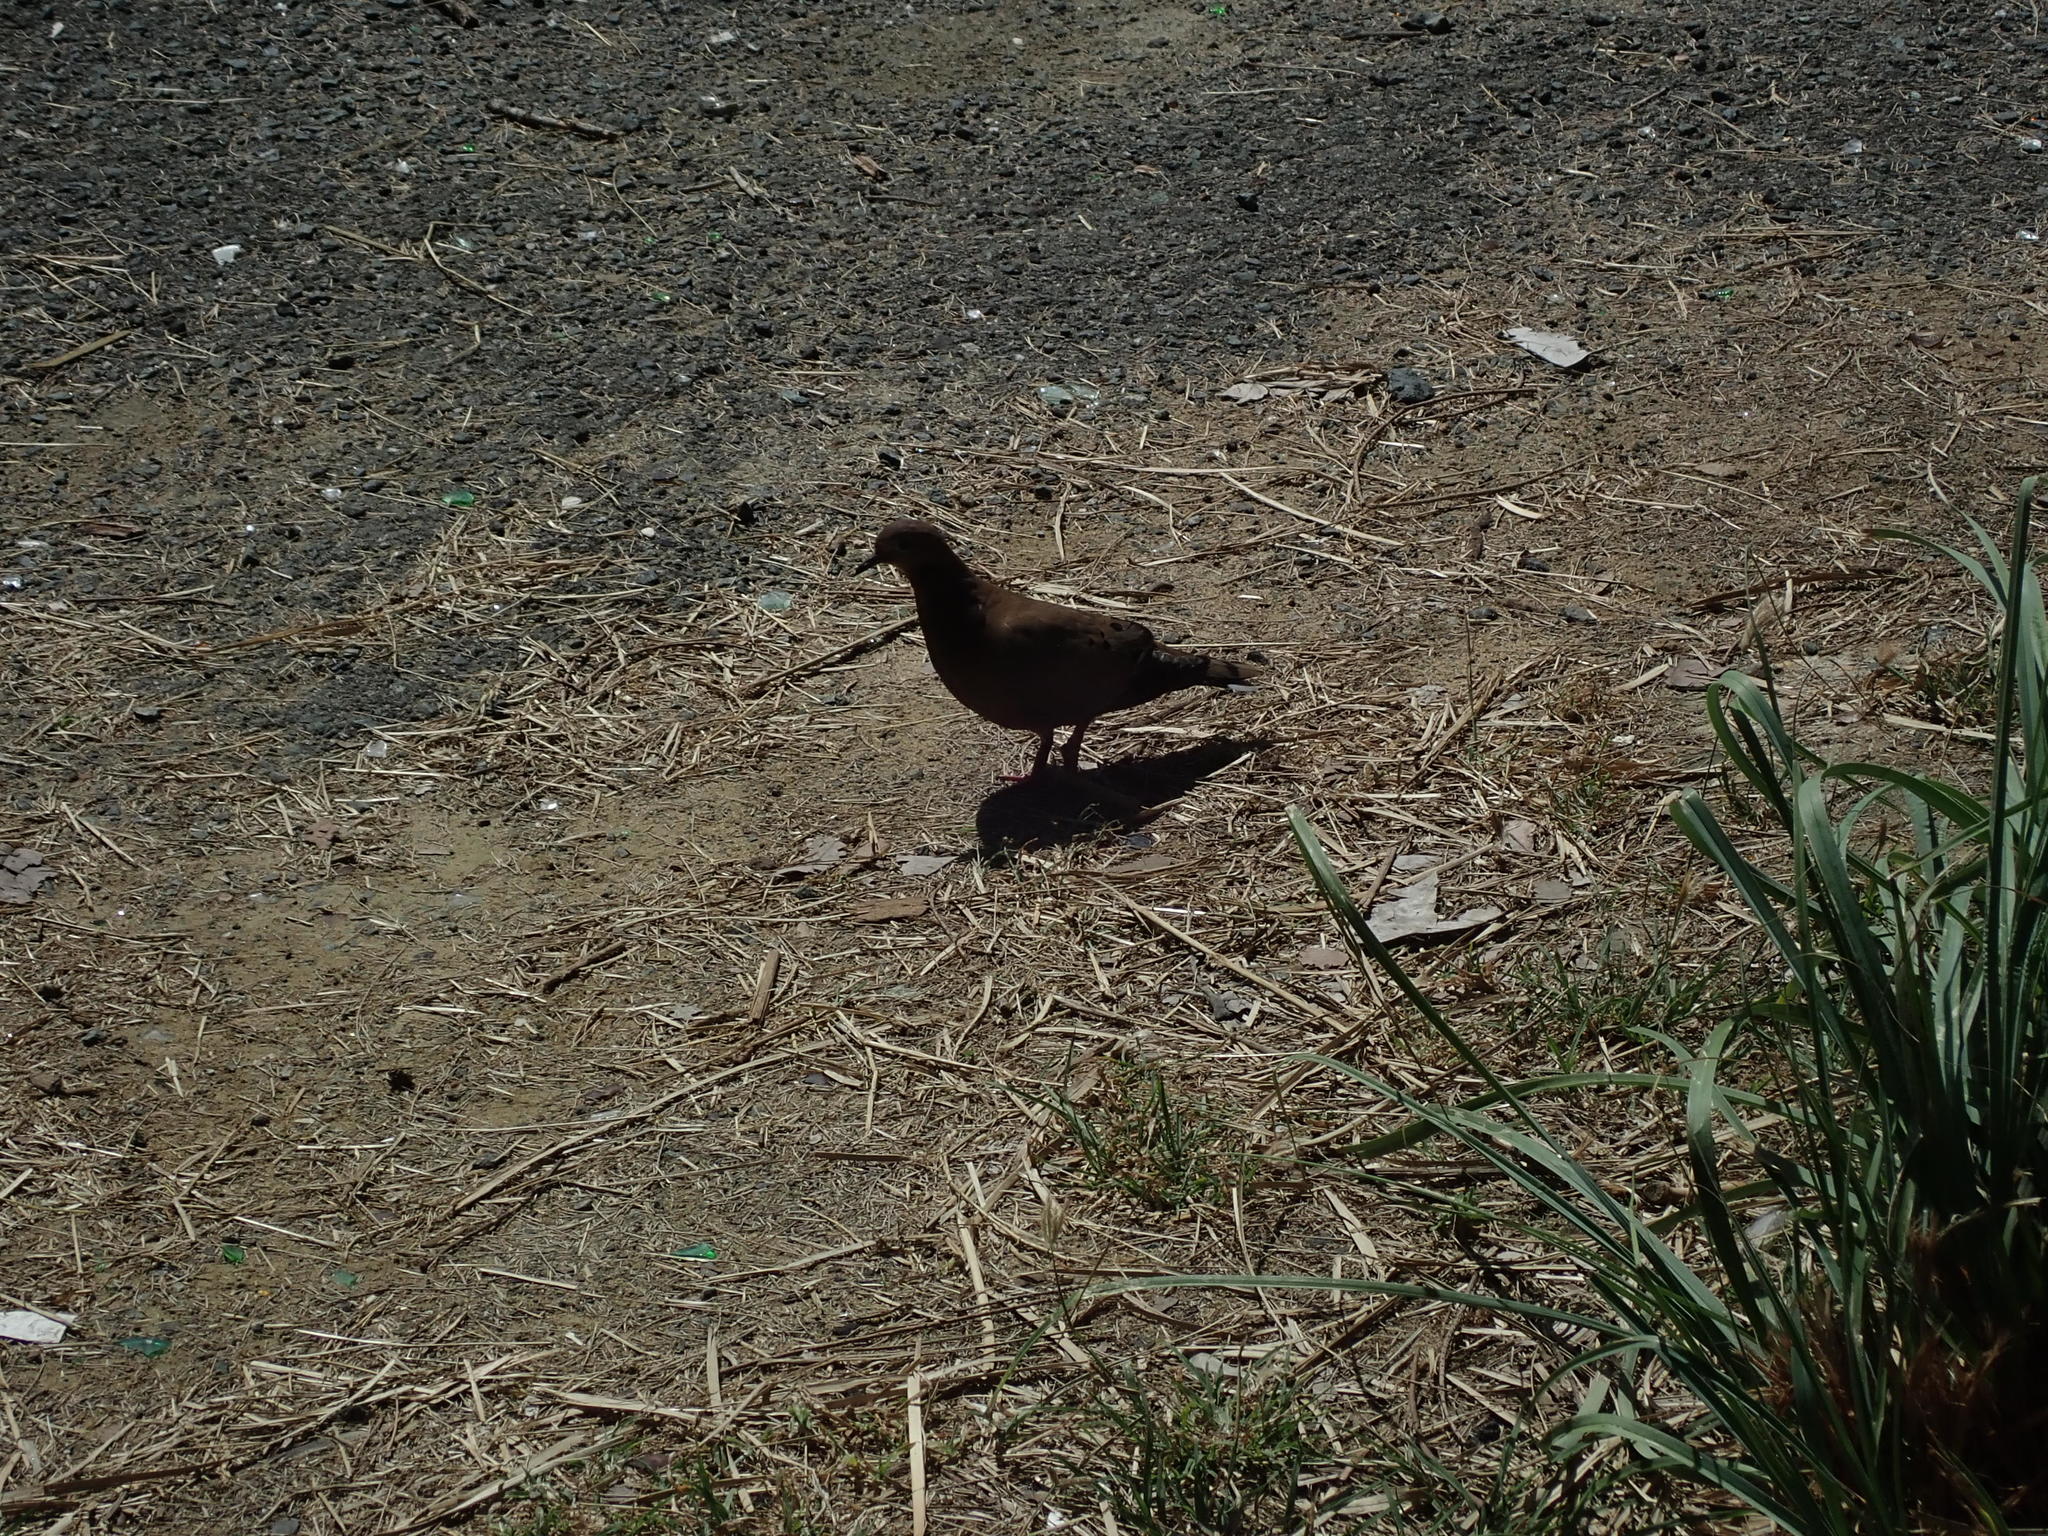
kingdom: Animalia
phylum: Chordata
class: Aves
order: Columbiformes
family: Columbidae
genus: Zenaida
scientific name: Zenaida aurita
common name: Zenaida dove
